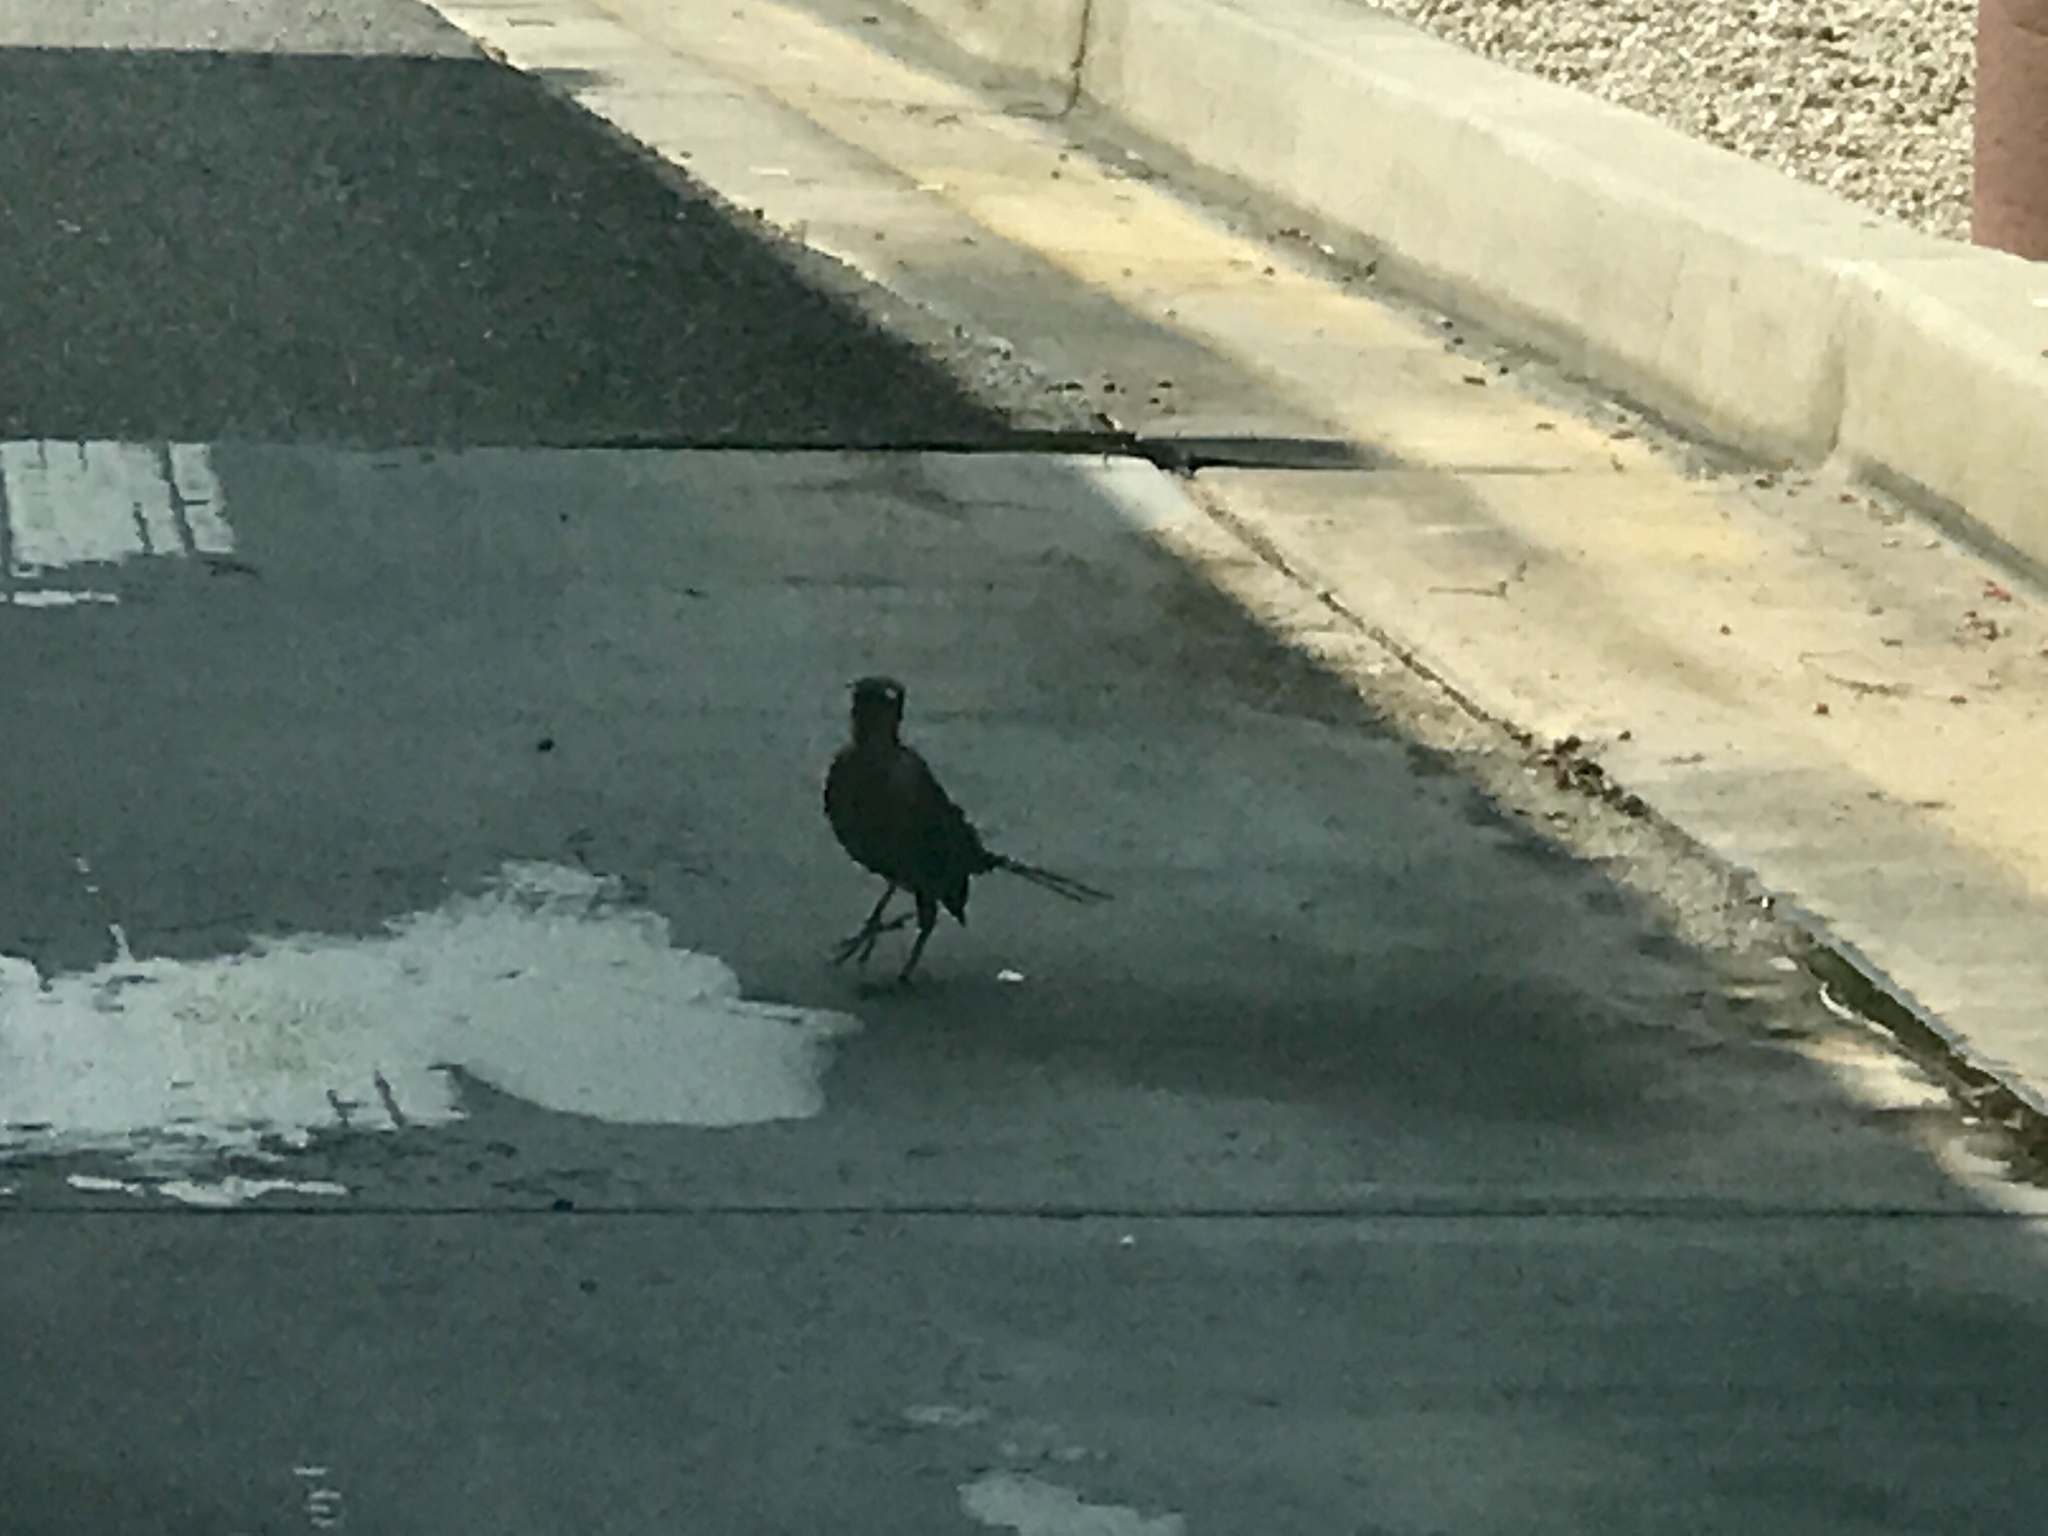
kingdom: Animalia
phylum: Chordata
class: Aves
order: Passeriformes
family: Icteridae
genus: Quiscalus
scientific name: Quiscalus mexicanus
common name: Great-tailed grackle
